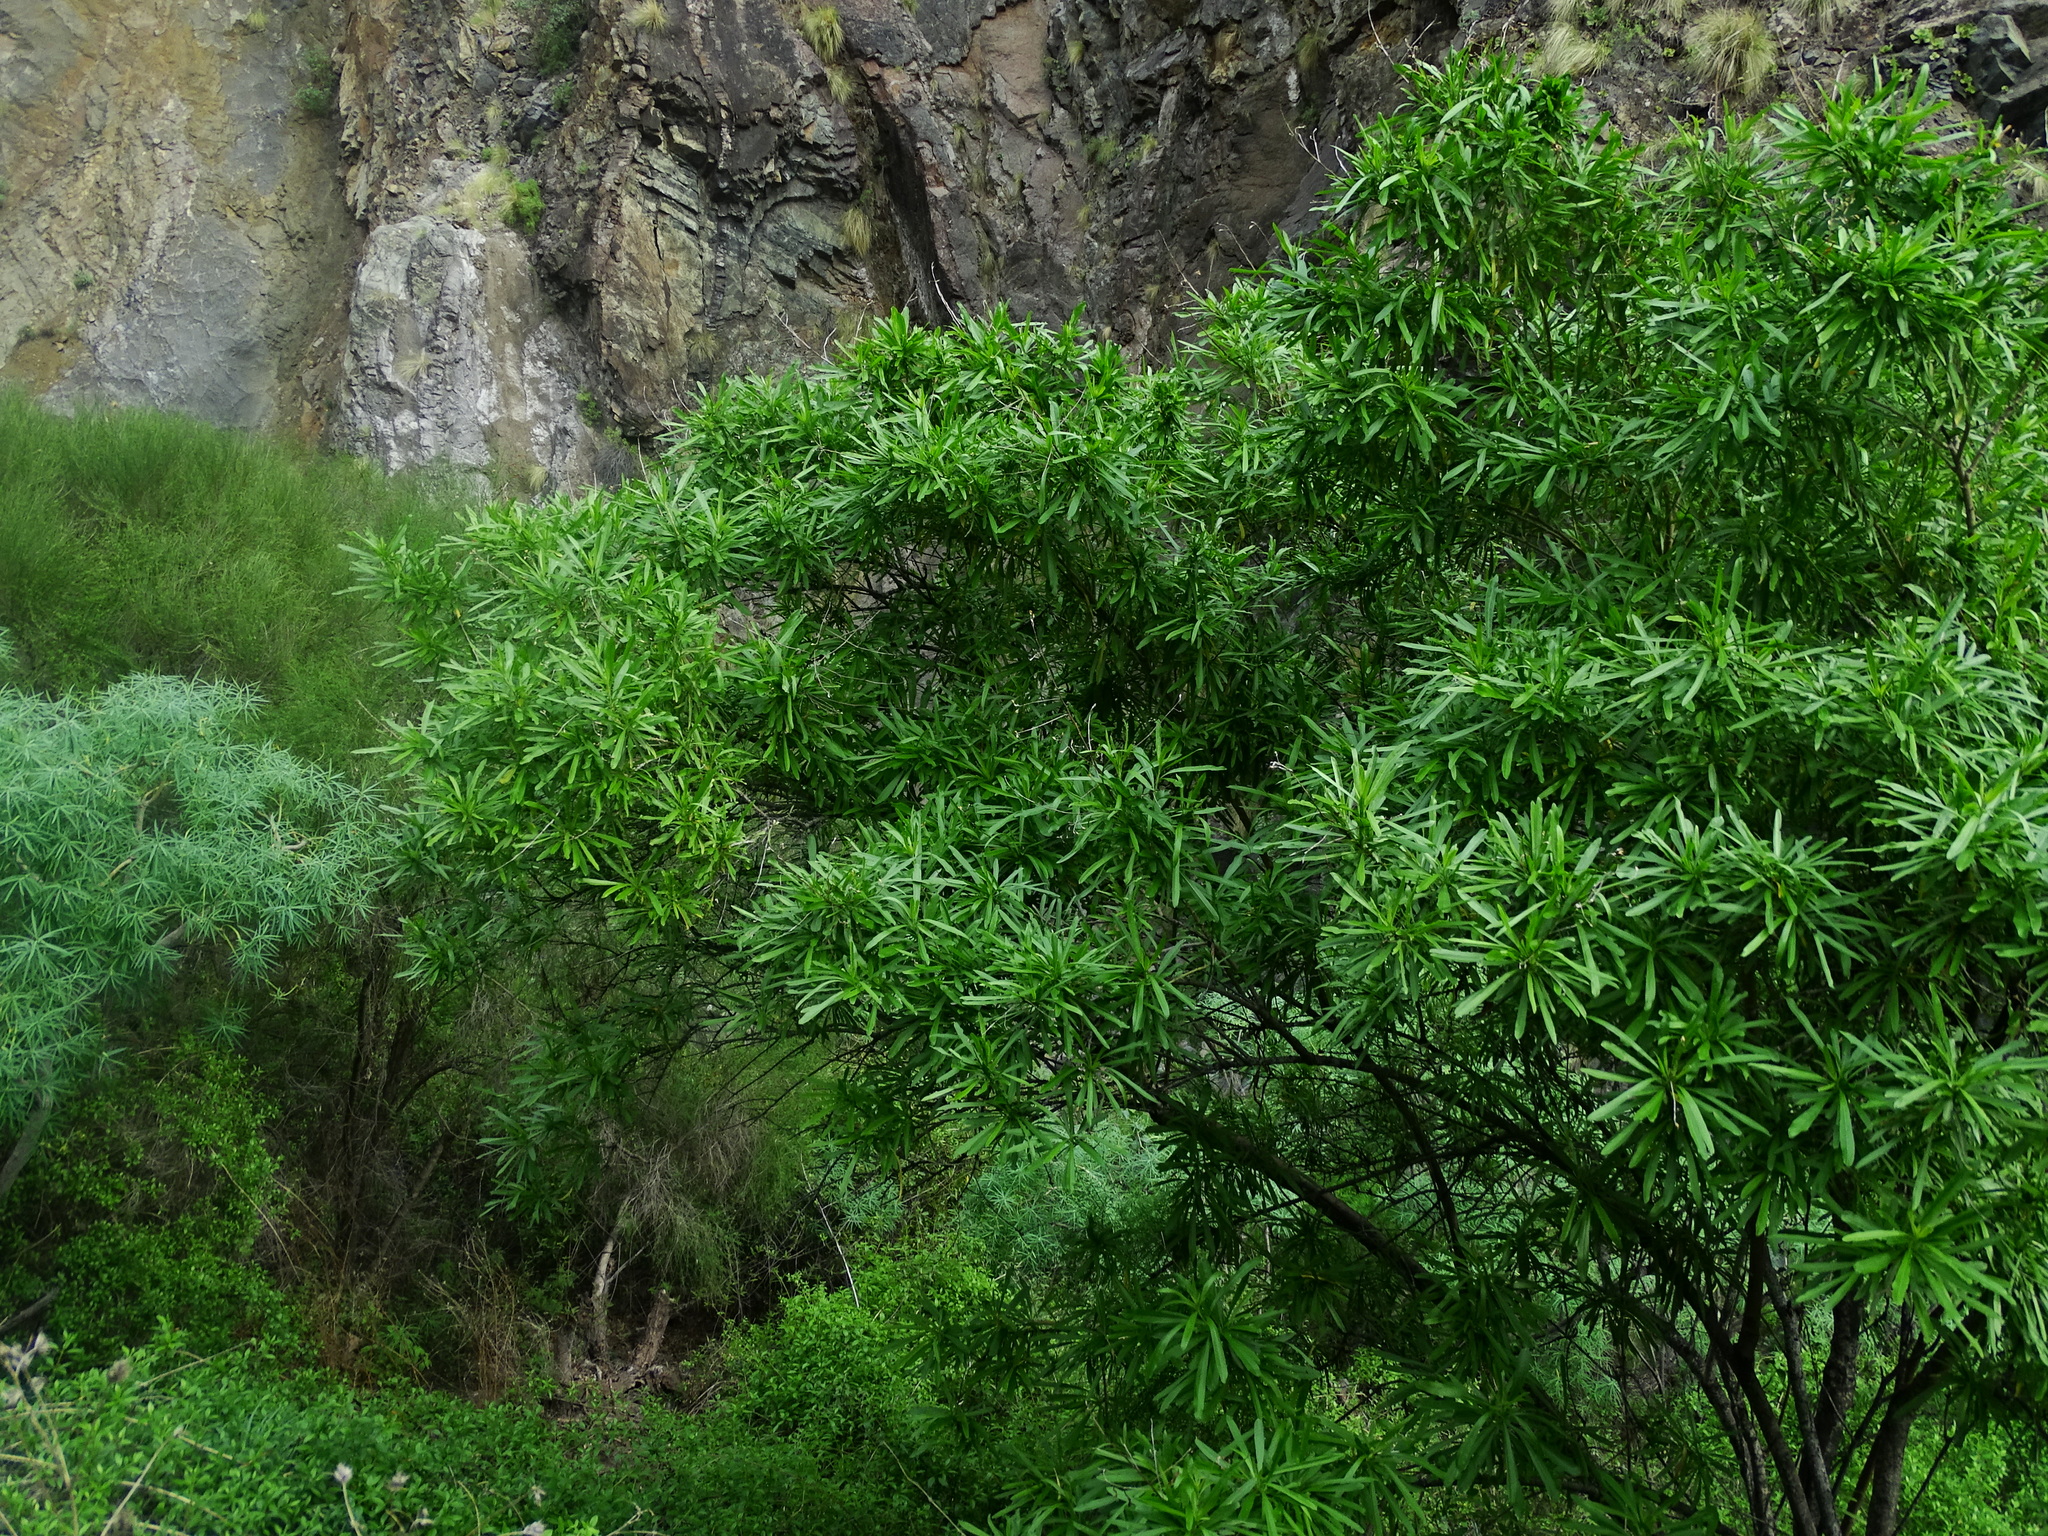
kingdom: Plantae
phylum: Tracheophyta
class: Magnoliopsida
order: Solanales
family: Convolvulaceae
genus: Convolvulus
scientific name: Convolvulus floridus
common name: Guadil
